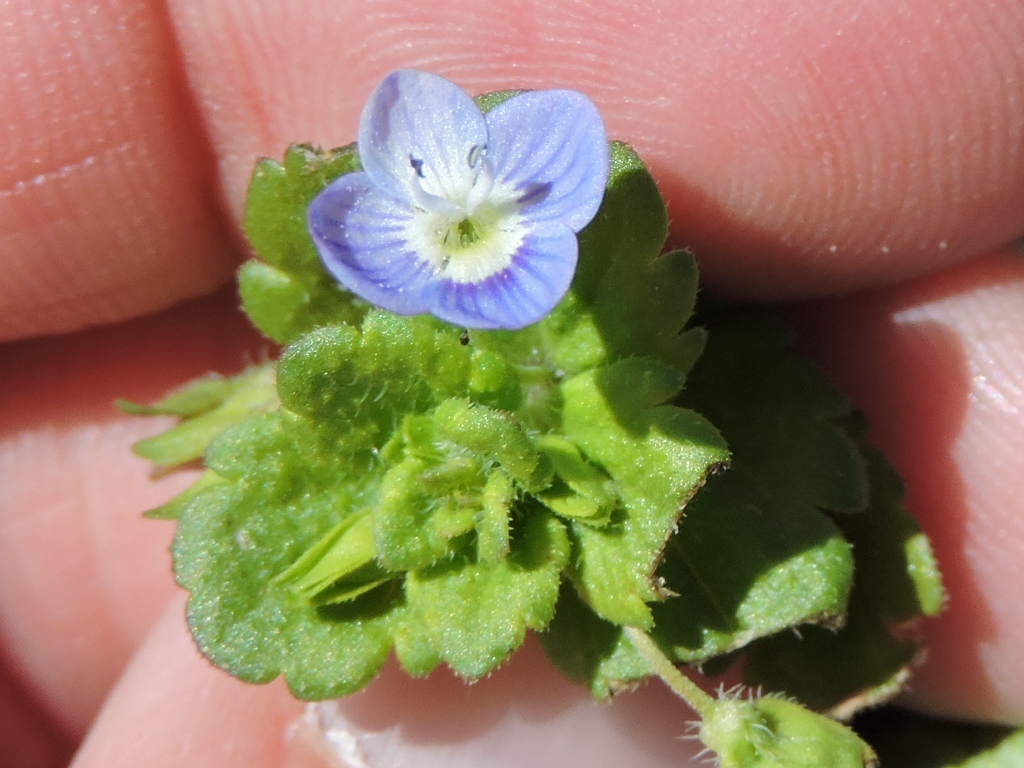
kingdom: Plantae
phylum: Tracheophyta
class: Magnoliopsida
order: Lamiales
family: Plantaginaceae
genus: Veronica
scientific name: Veronica persica
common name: Common field-speedwell
